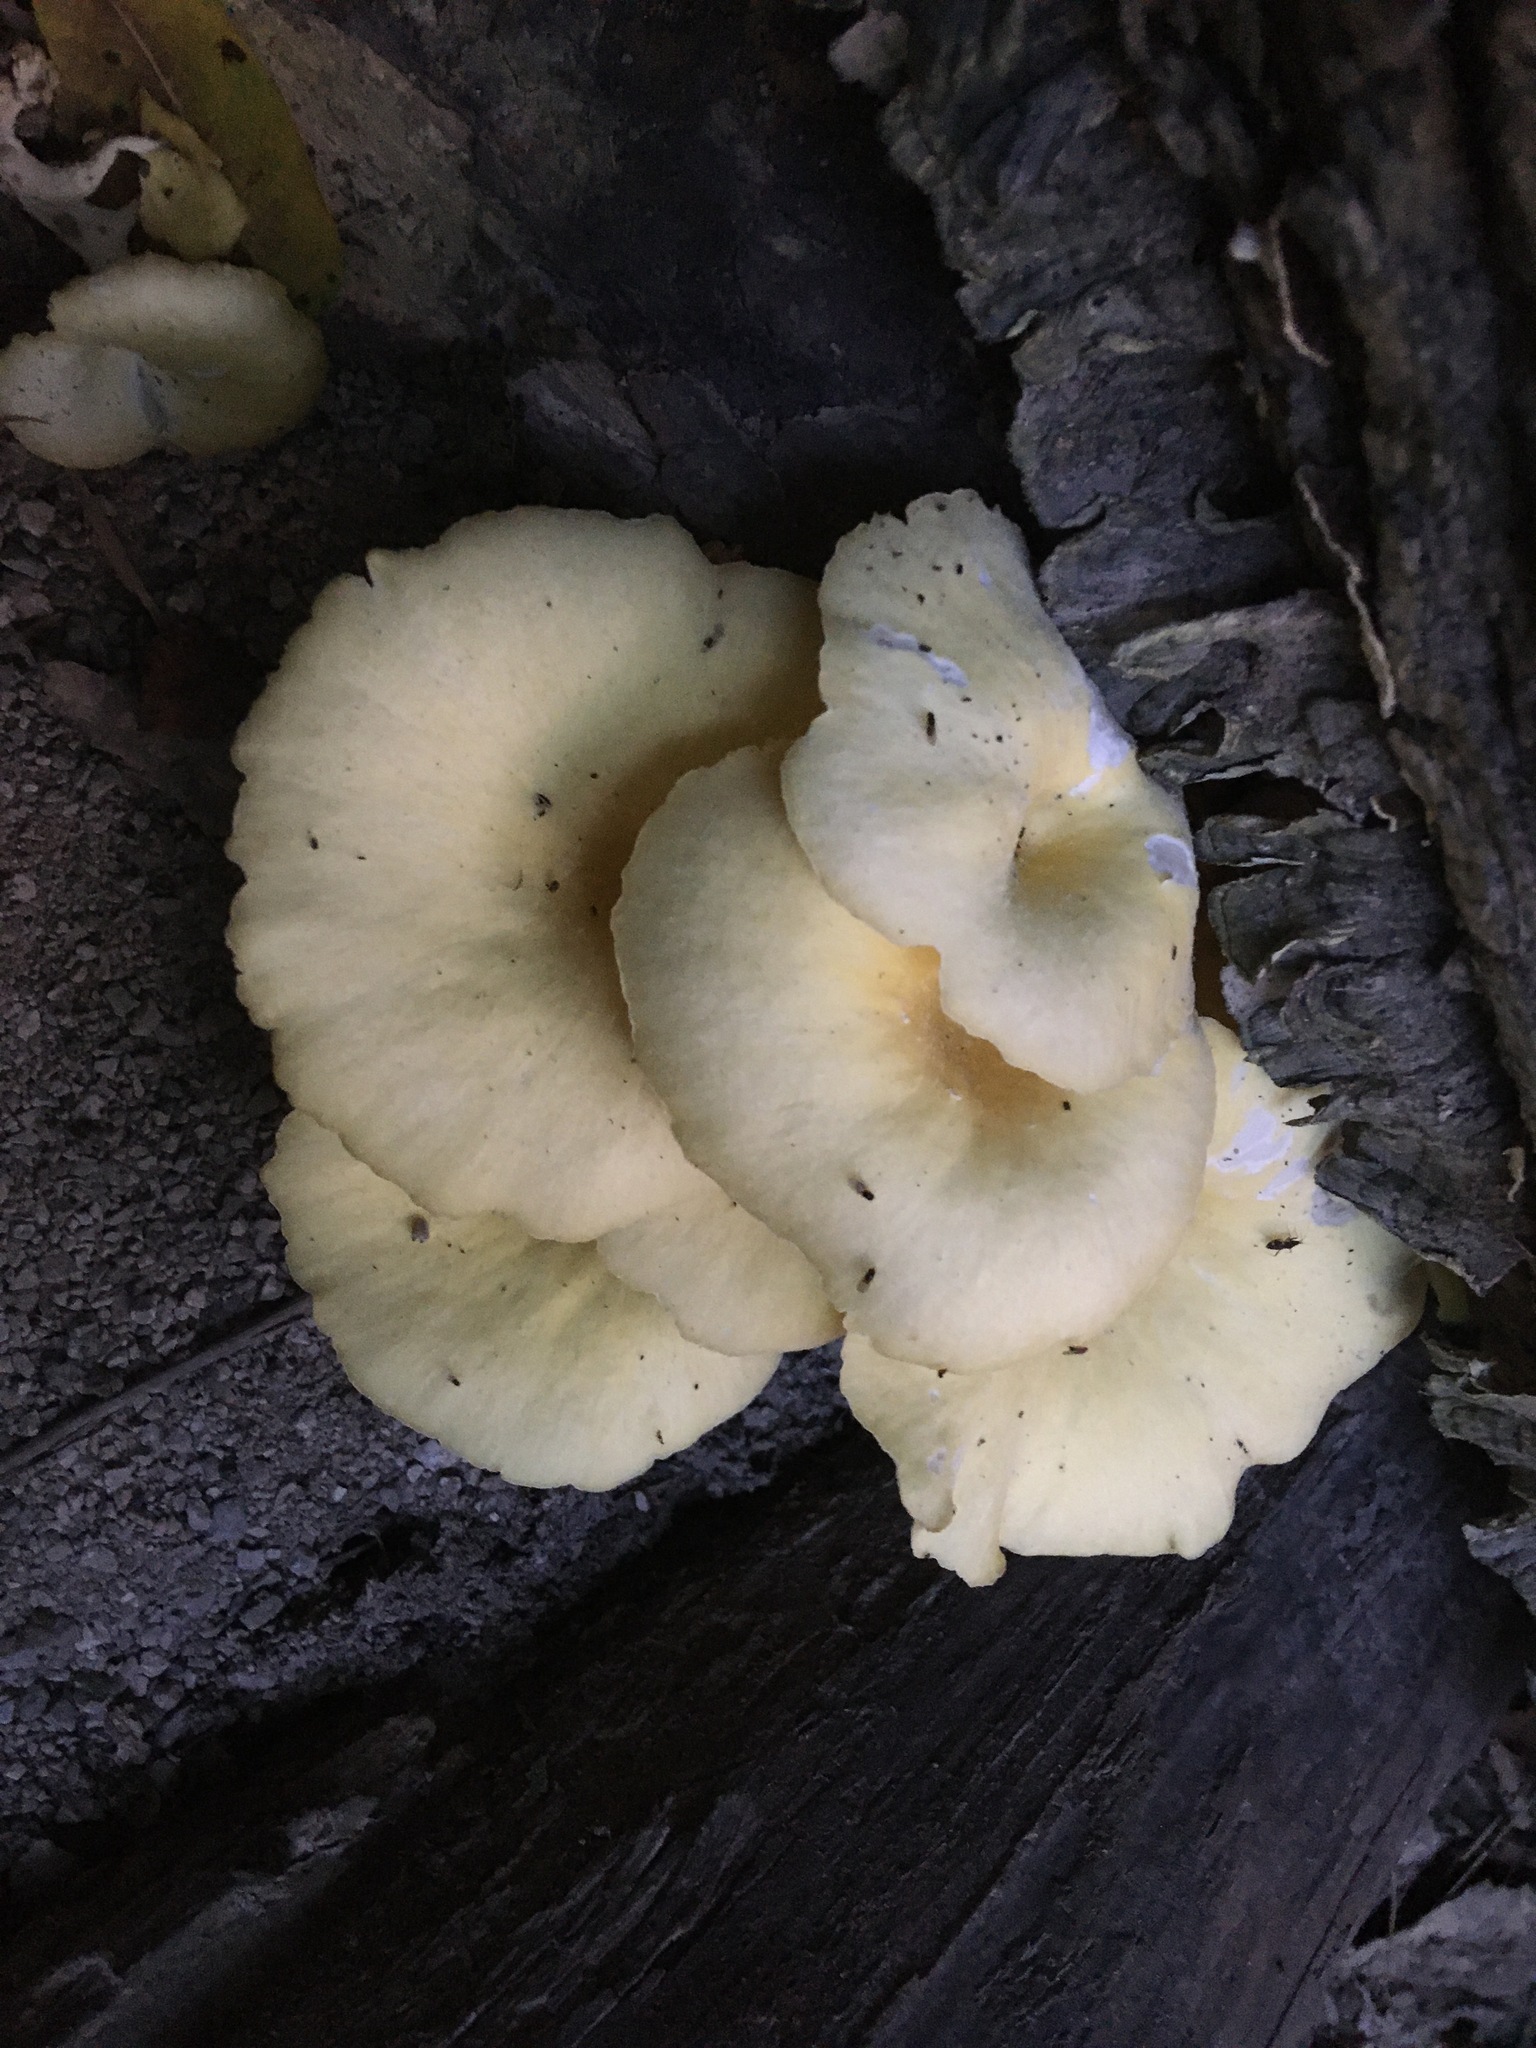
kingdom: Fungi
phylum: Basidiomycota
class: Agaricomycetes
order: Agaricales
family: Pleurotaceae
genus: Pleurotus
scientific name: Pleurotus citrinopileatus
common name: Golden oyster mushroom
